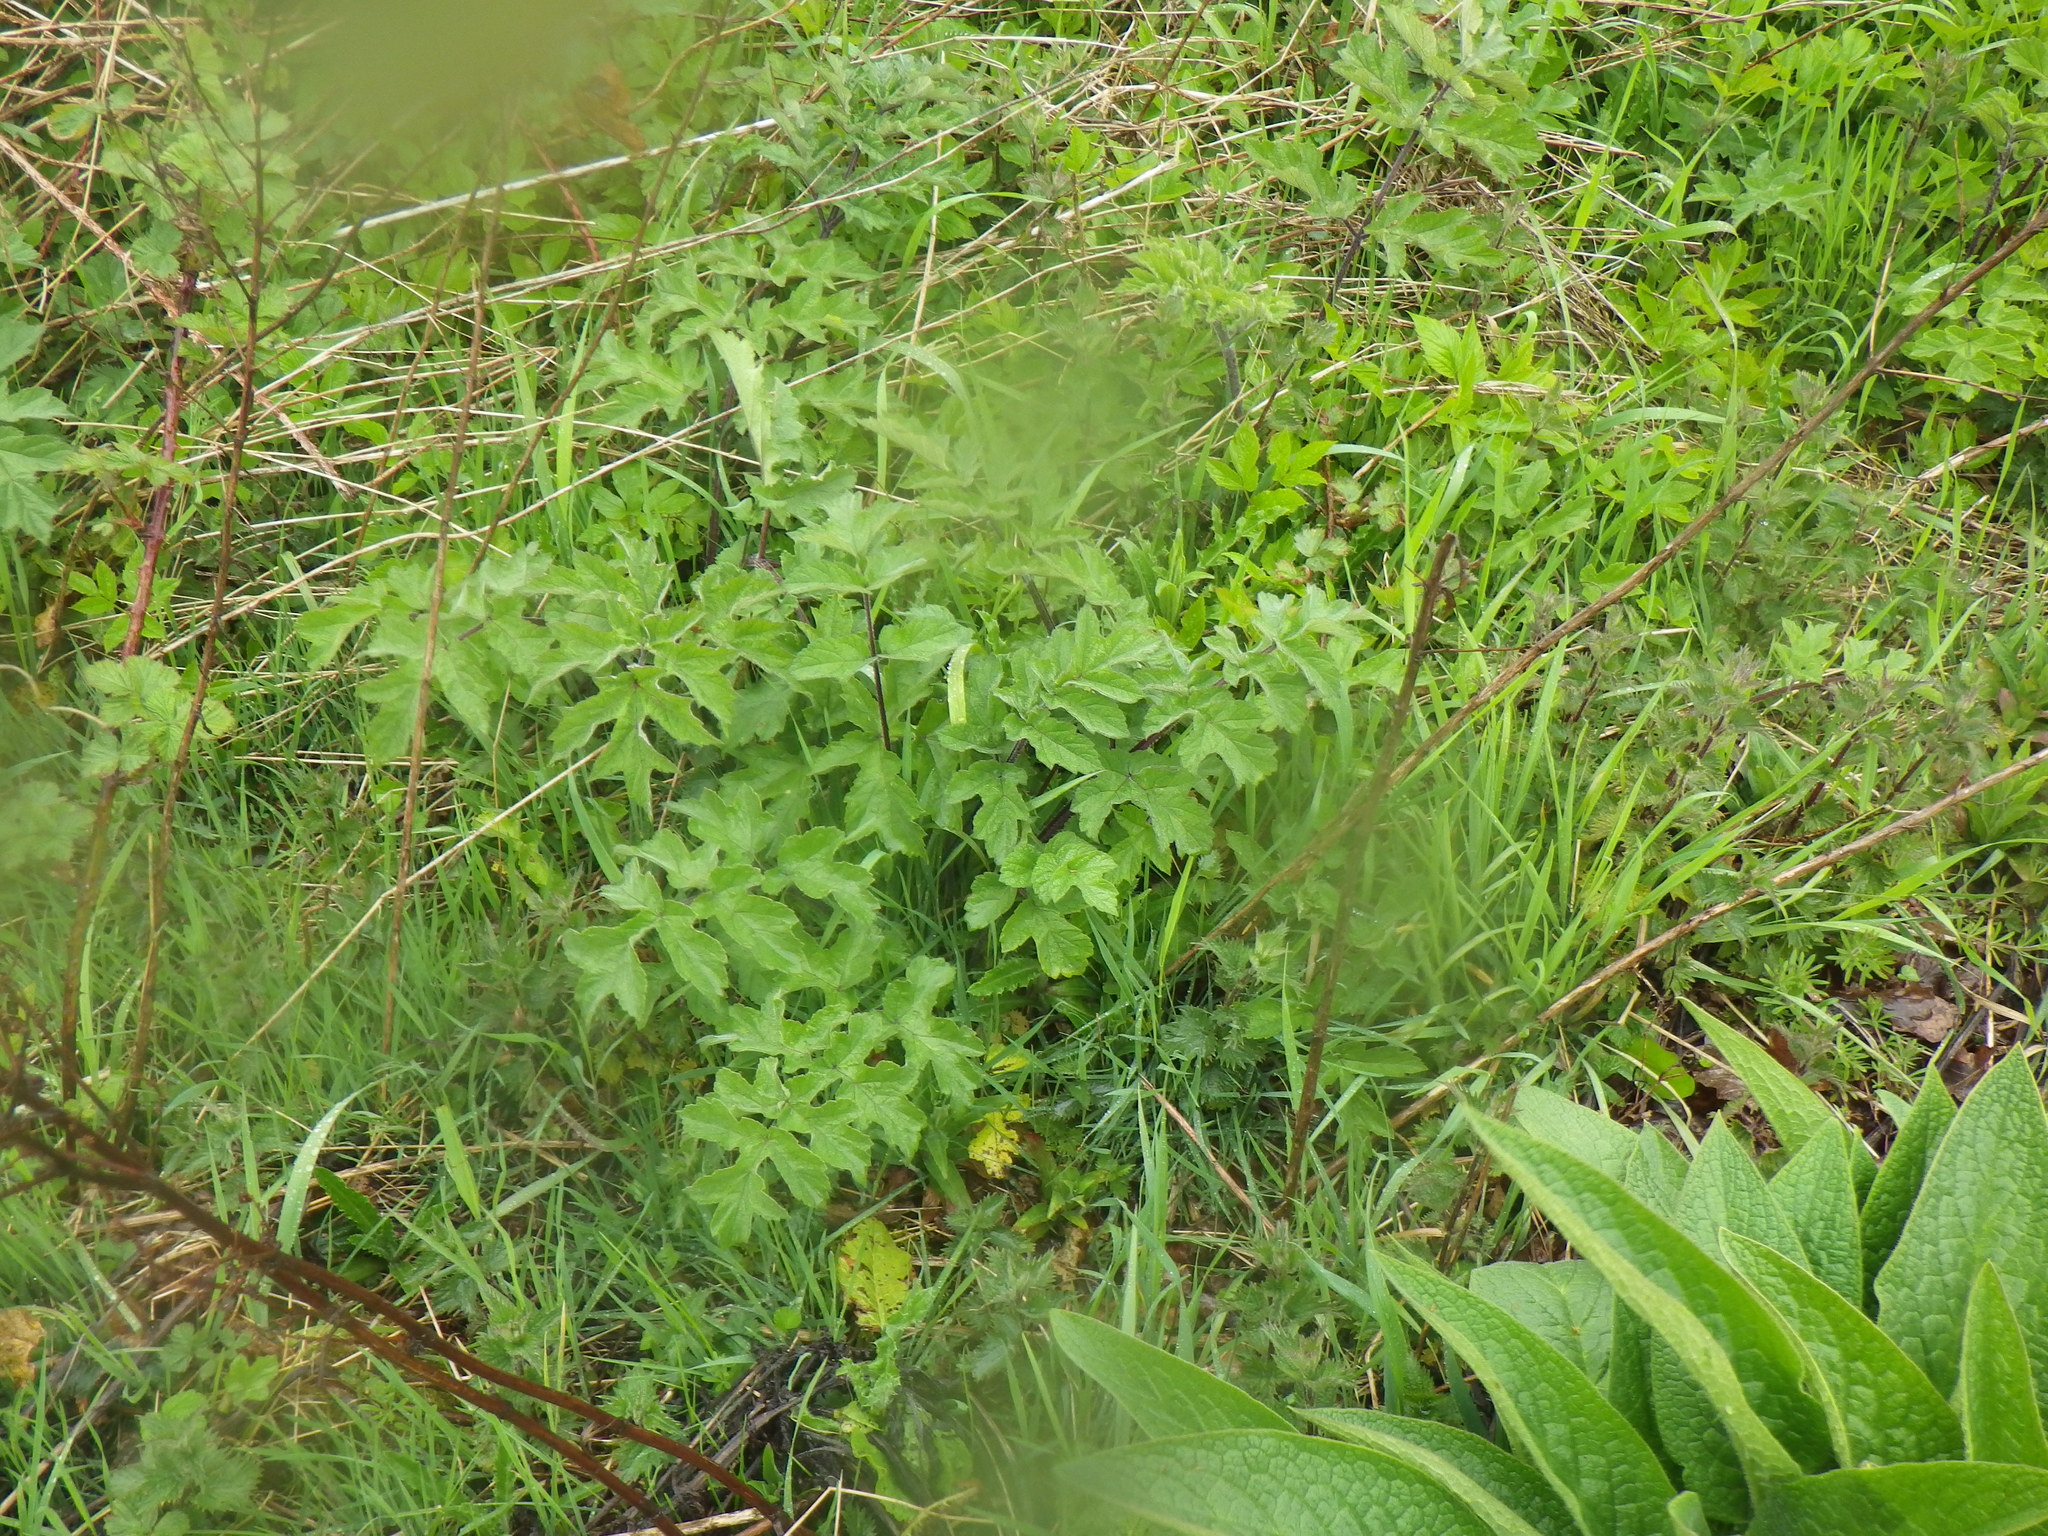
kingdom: Plantae
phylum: Tracheophyta
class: Magnoliopsida
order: Apiales
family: Apiaceae
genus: Heracleum
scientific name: Heracleum sphondylium
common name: Hogweed
